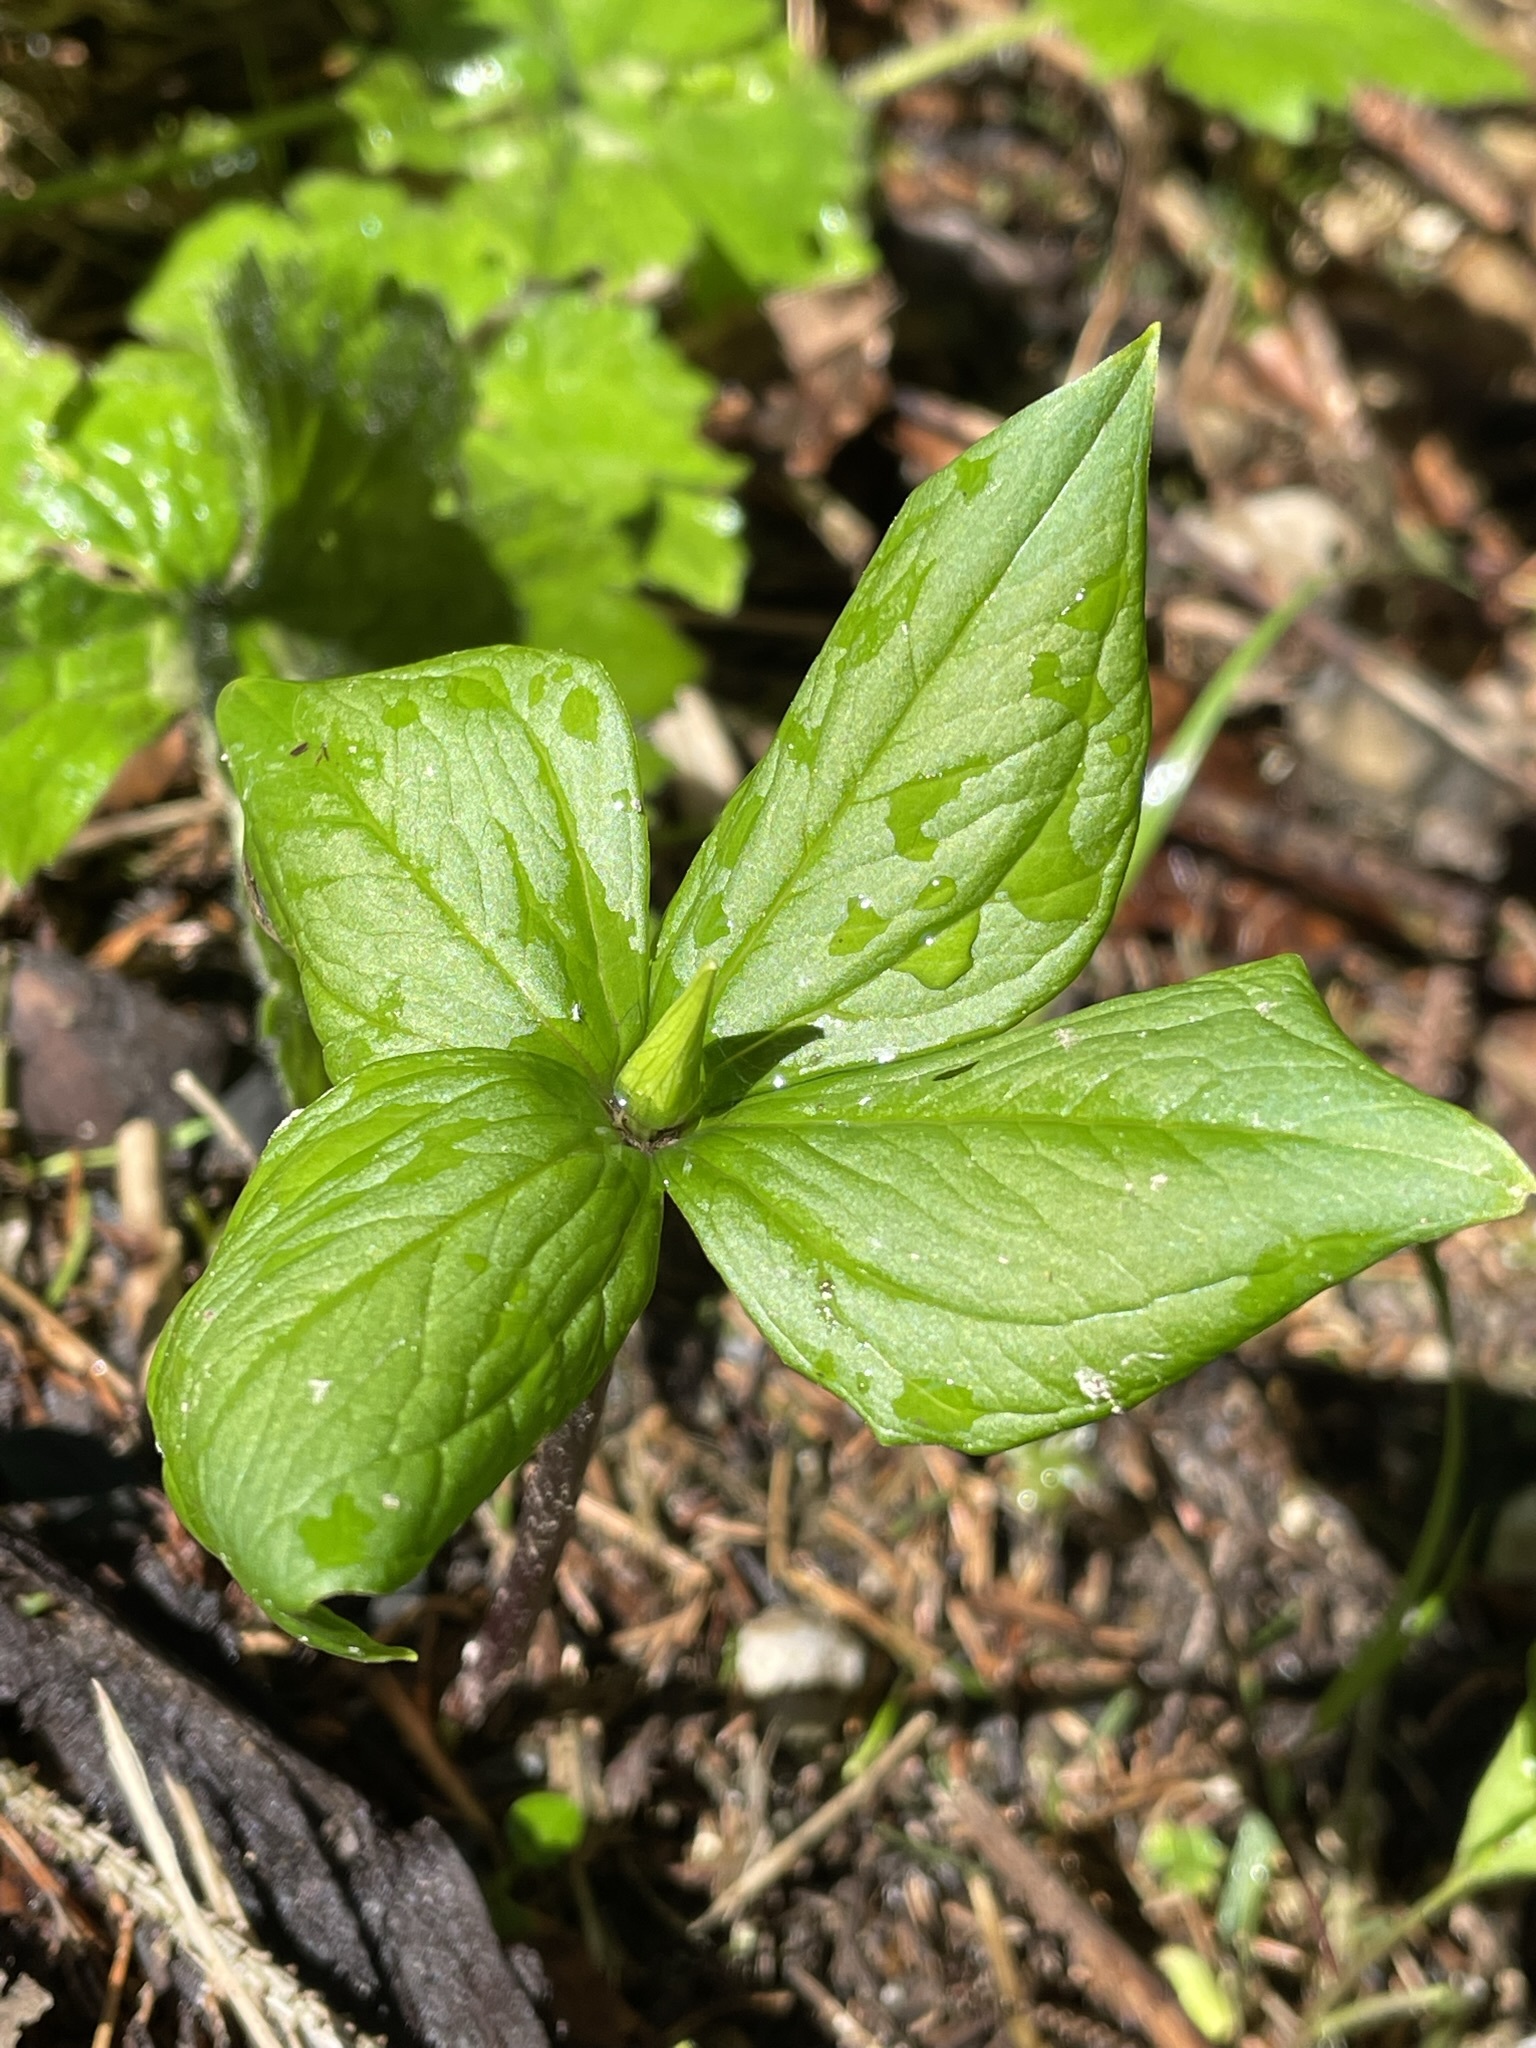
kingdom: Plantae
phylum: Tracheophyta
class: Liliopsida
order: Liliales
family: Melanthiaceae
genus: Paris
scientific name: Paris quadrifolia
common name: Herb-paris
